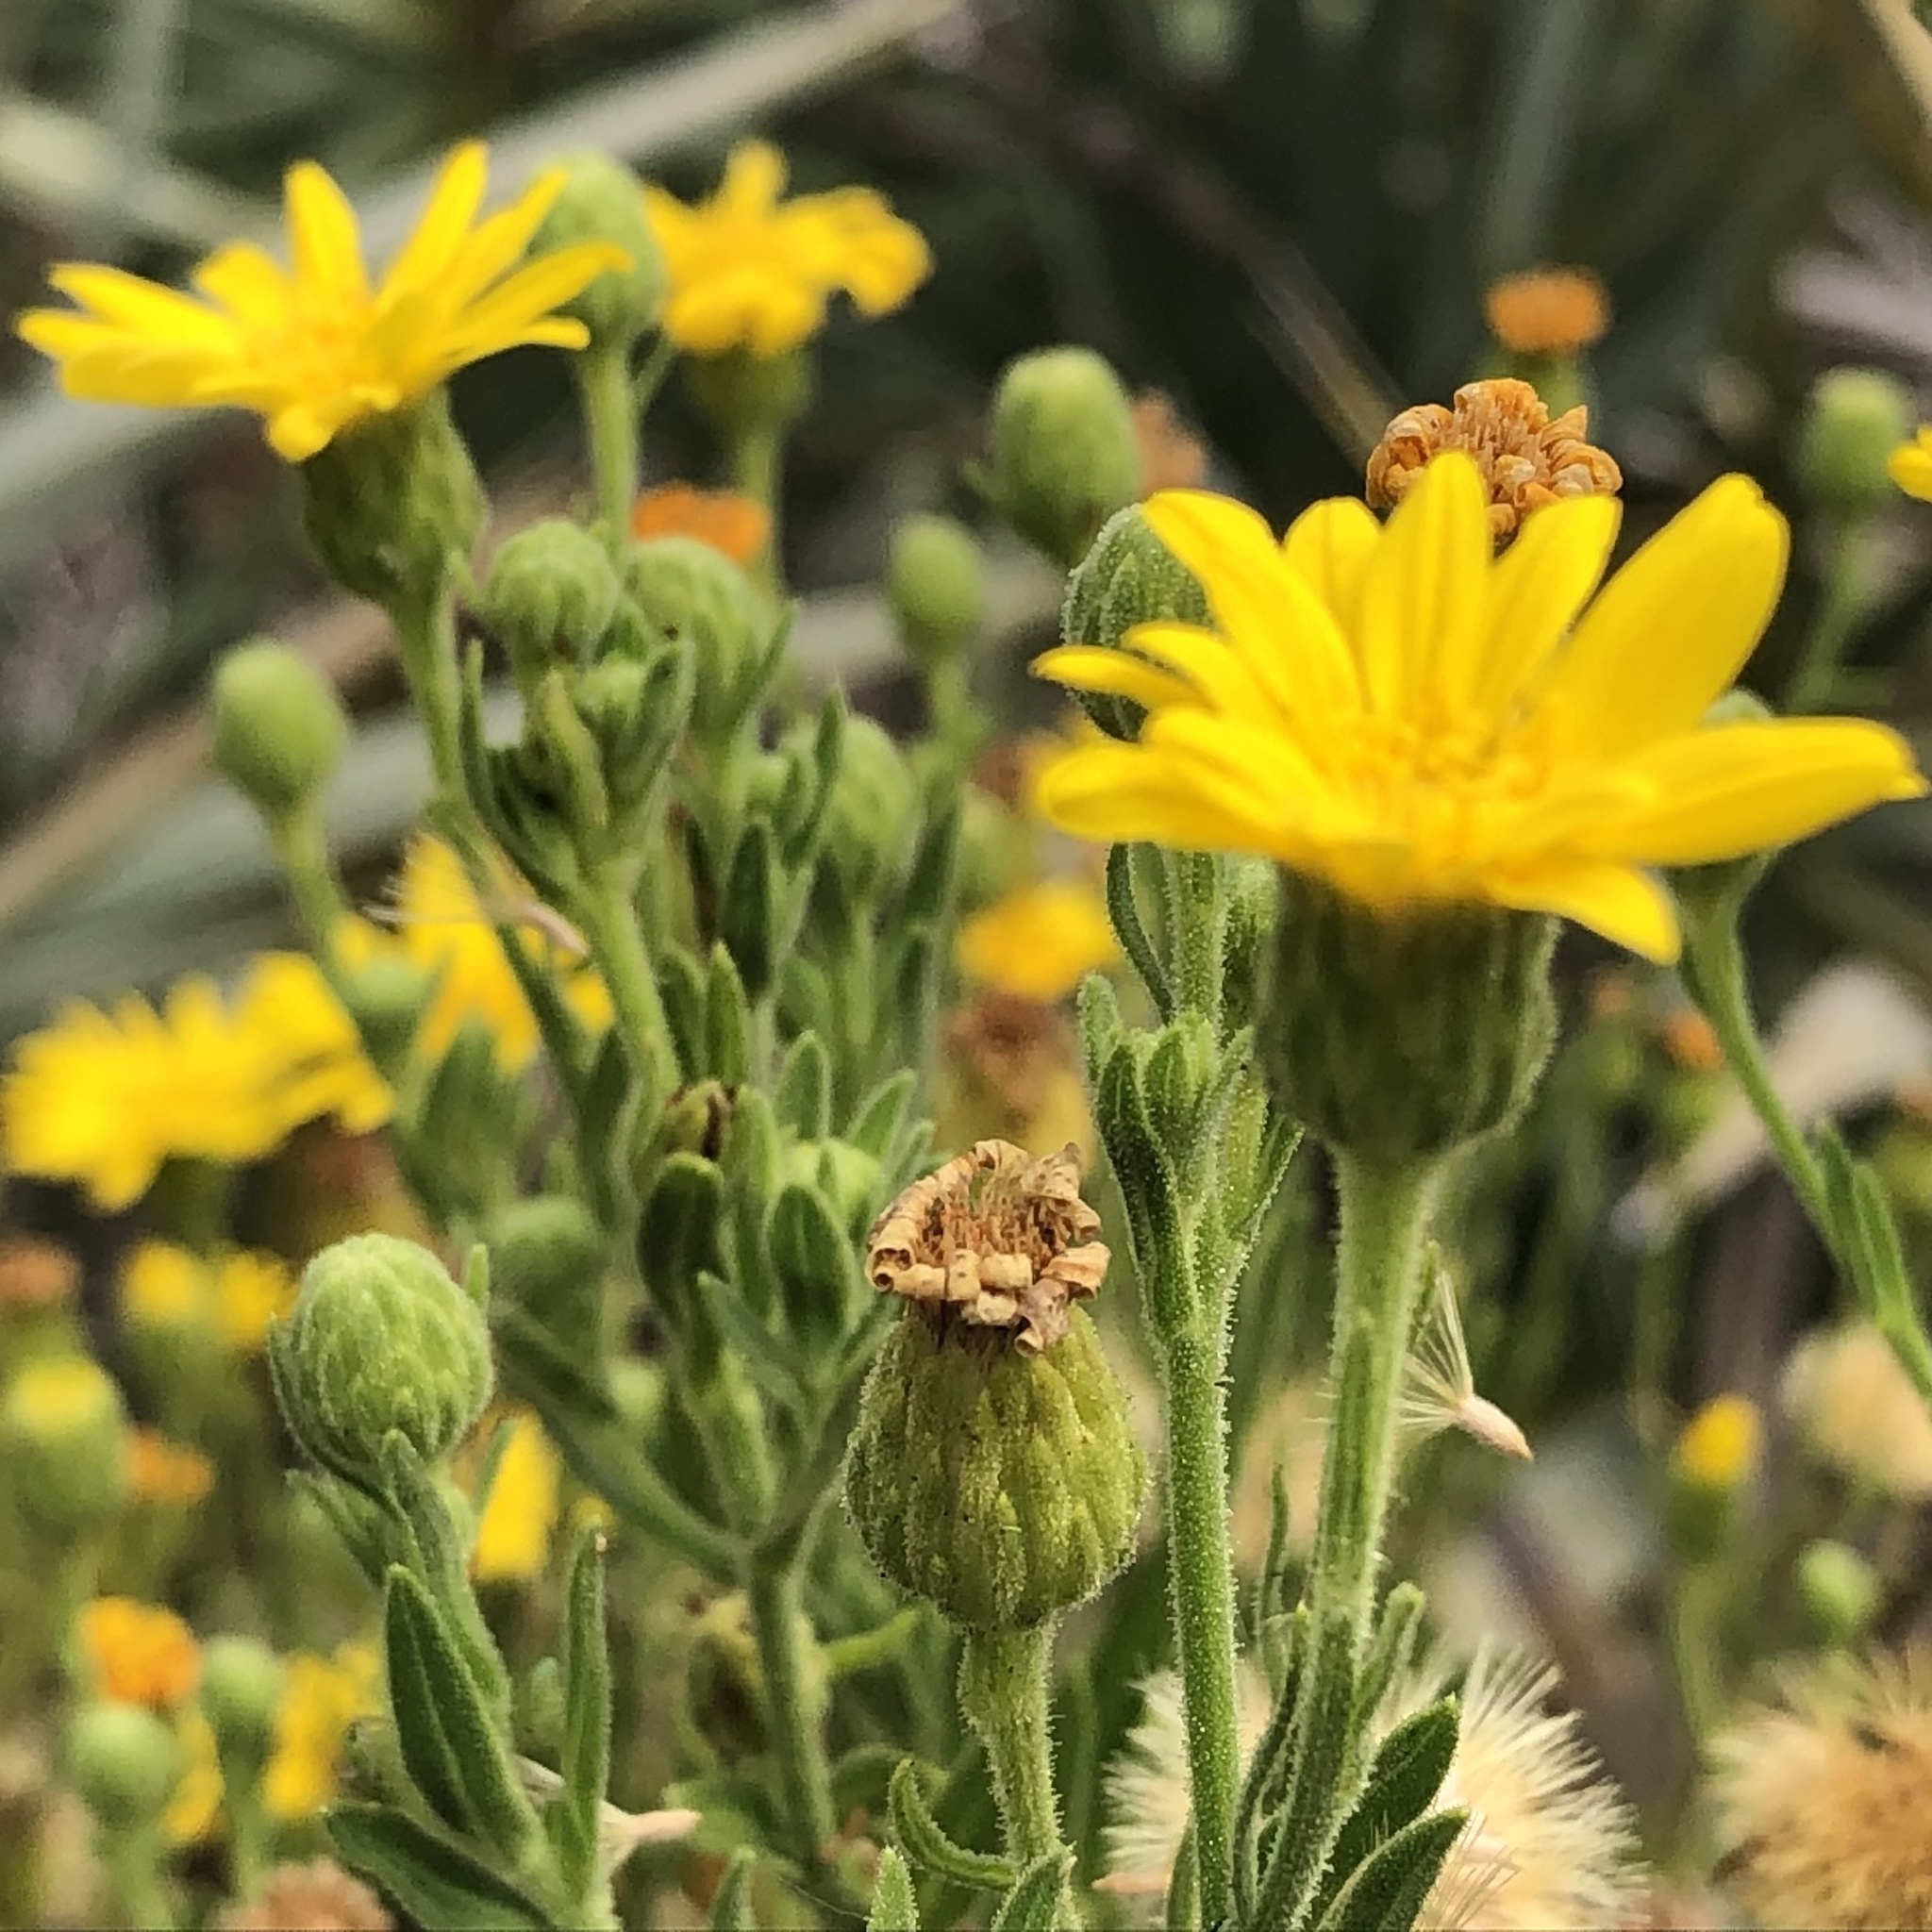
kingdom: Plantae
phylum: Tracheophyta
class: Magnoliopsida
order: Asterales
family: Asteraceae
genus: Heterotheca
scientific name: Heterotheca subaxillaris
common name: Camphorweed
